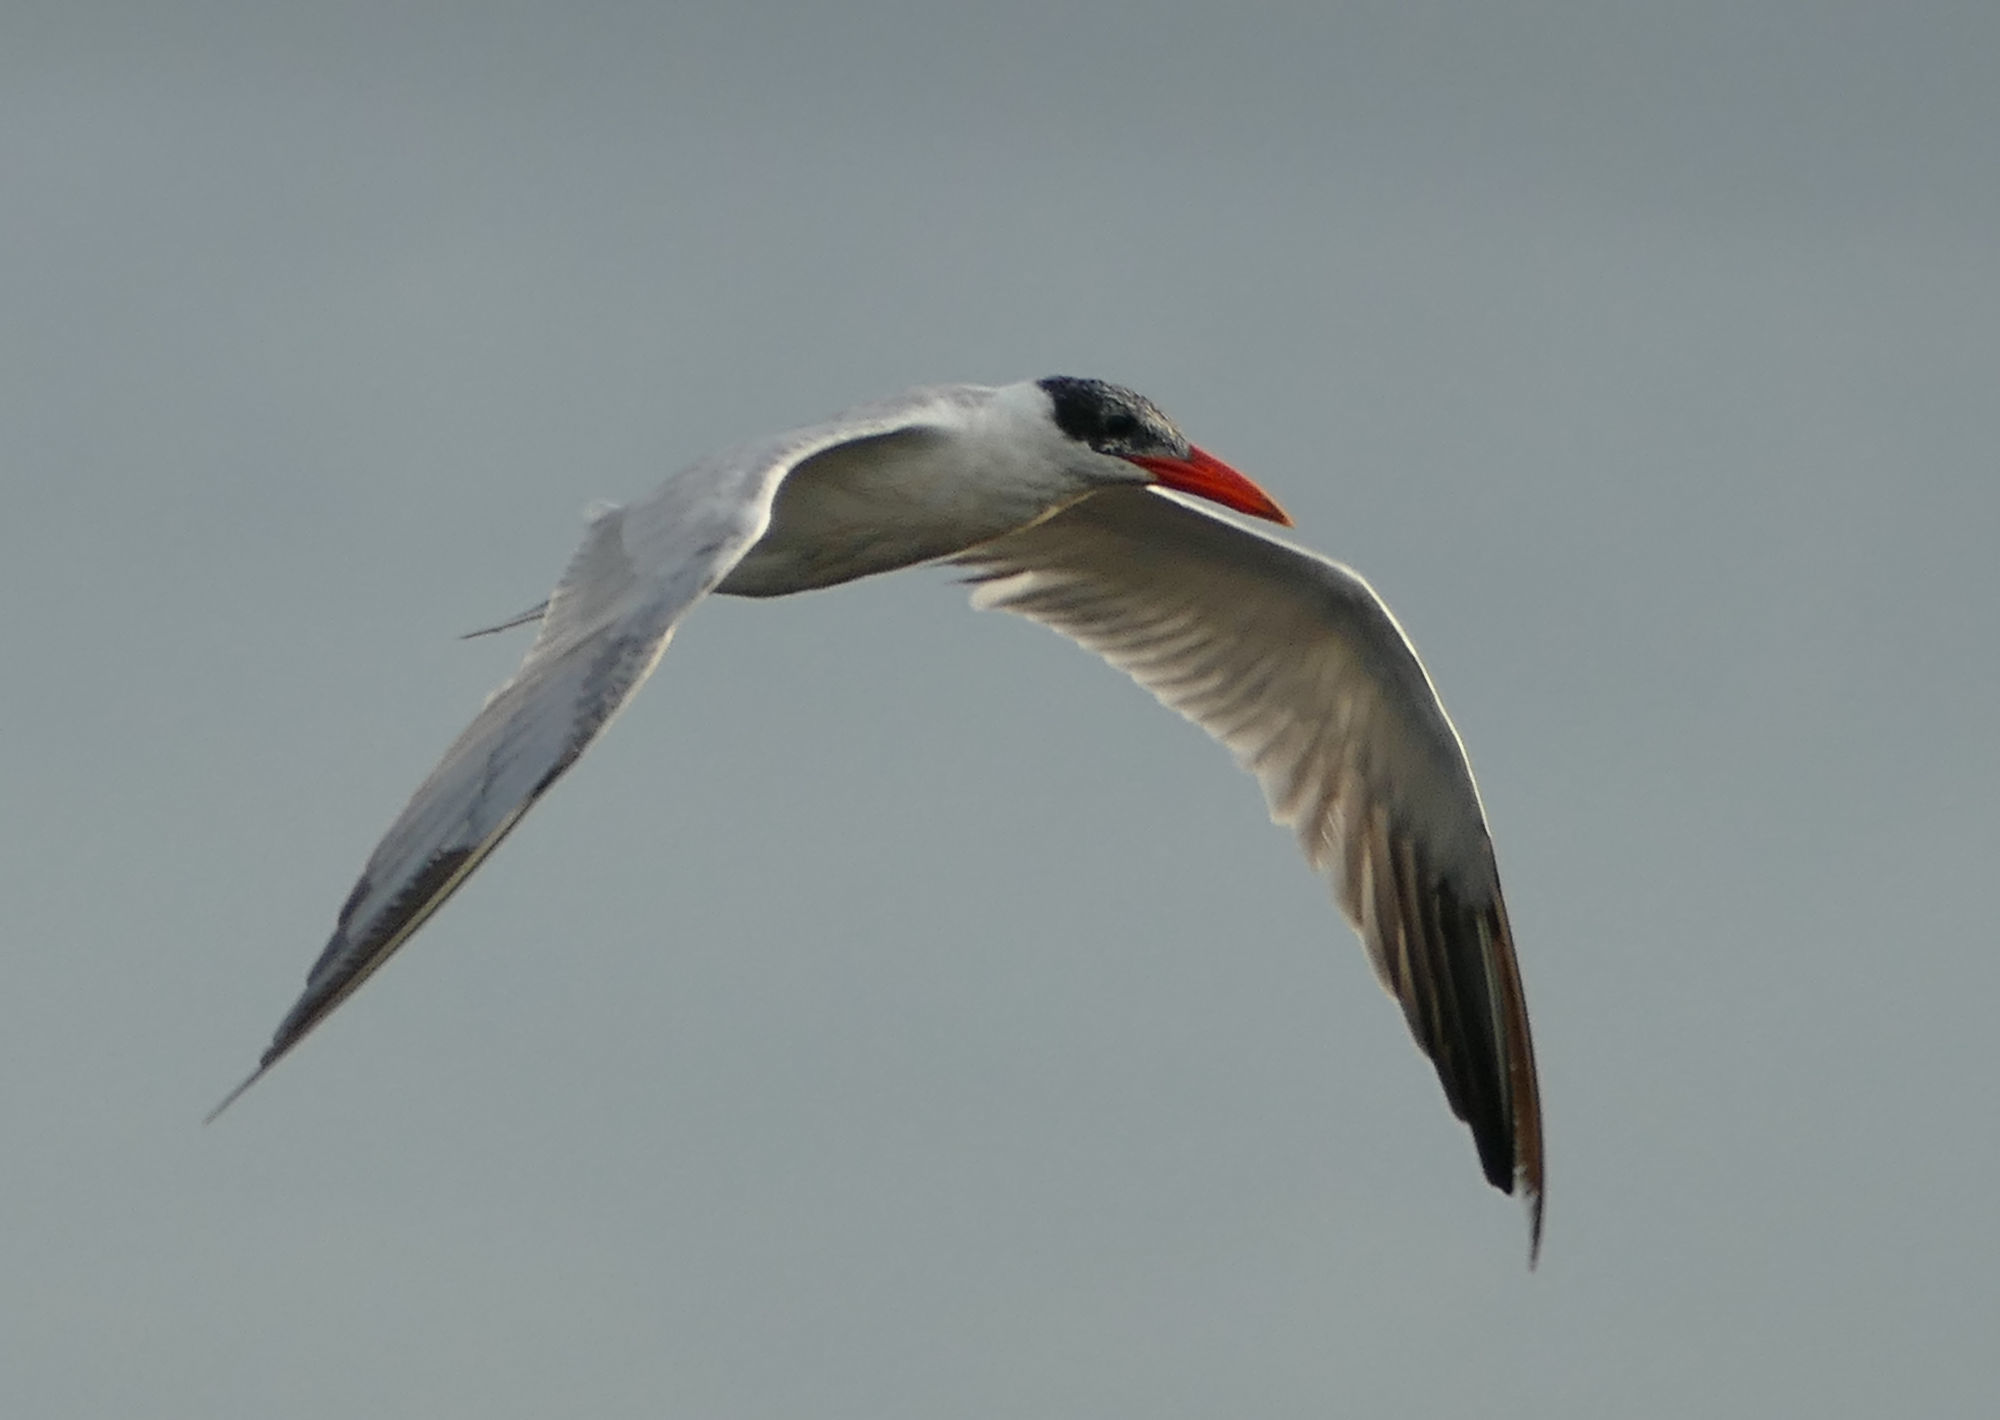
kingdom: Animalia
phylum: Chordata
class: Aves
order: Charadriiformes
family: Laridae
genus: Hydroprogne
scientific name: Hydroprogne caspia
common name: Caspian tern
